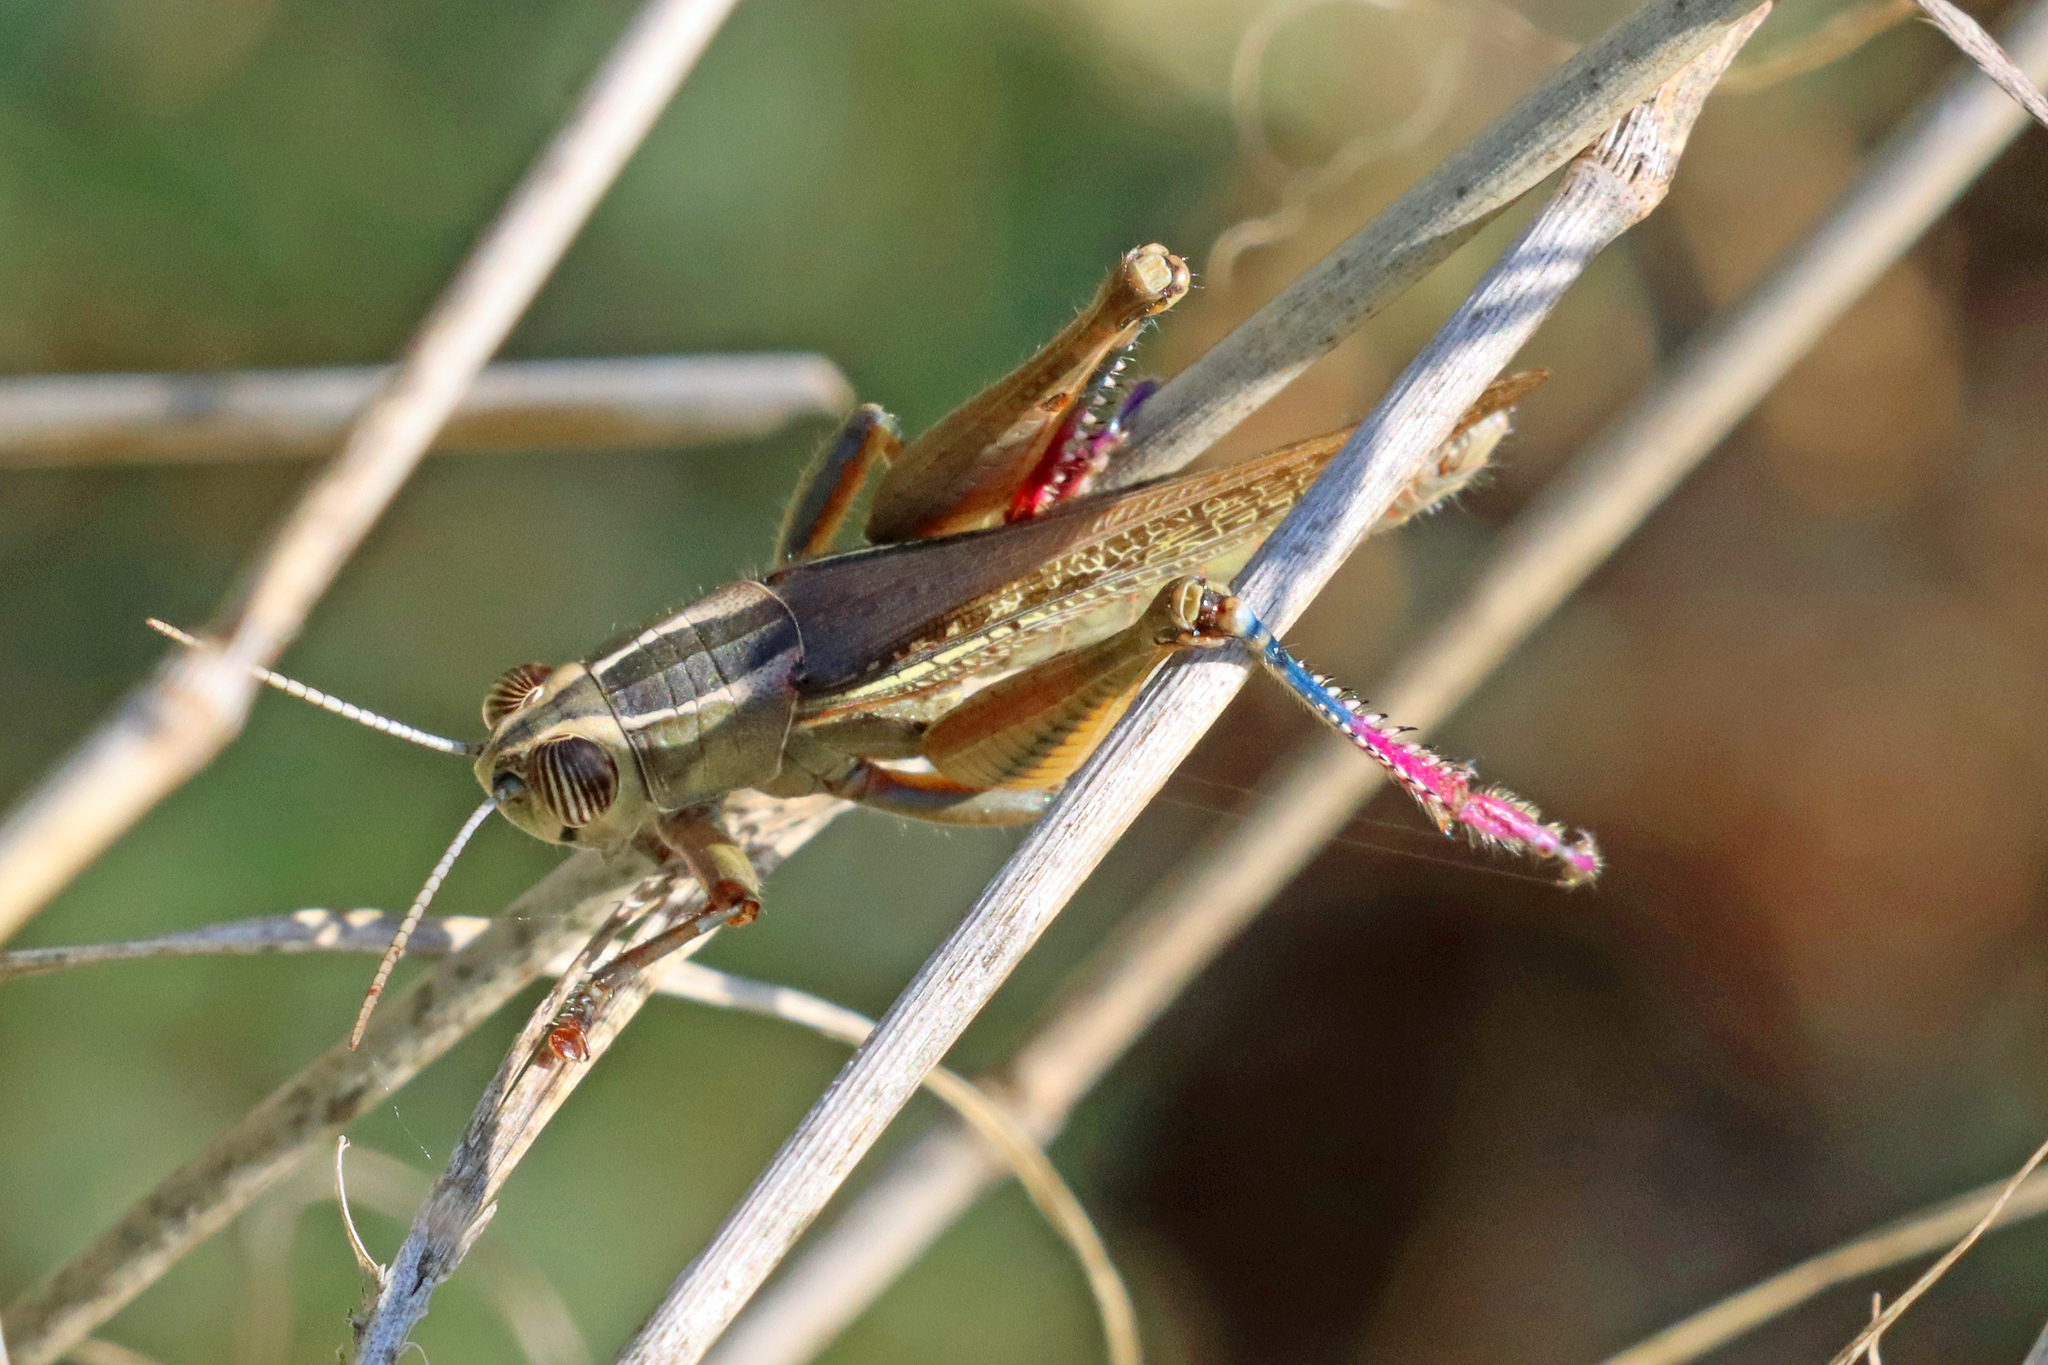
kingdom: Animalia
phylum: Arthropoda
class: Insecta
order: Orthoptera
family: Acrididae
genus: Eyprepocnemis
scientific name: Eyprepocnemis plorans
